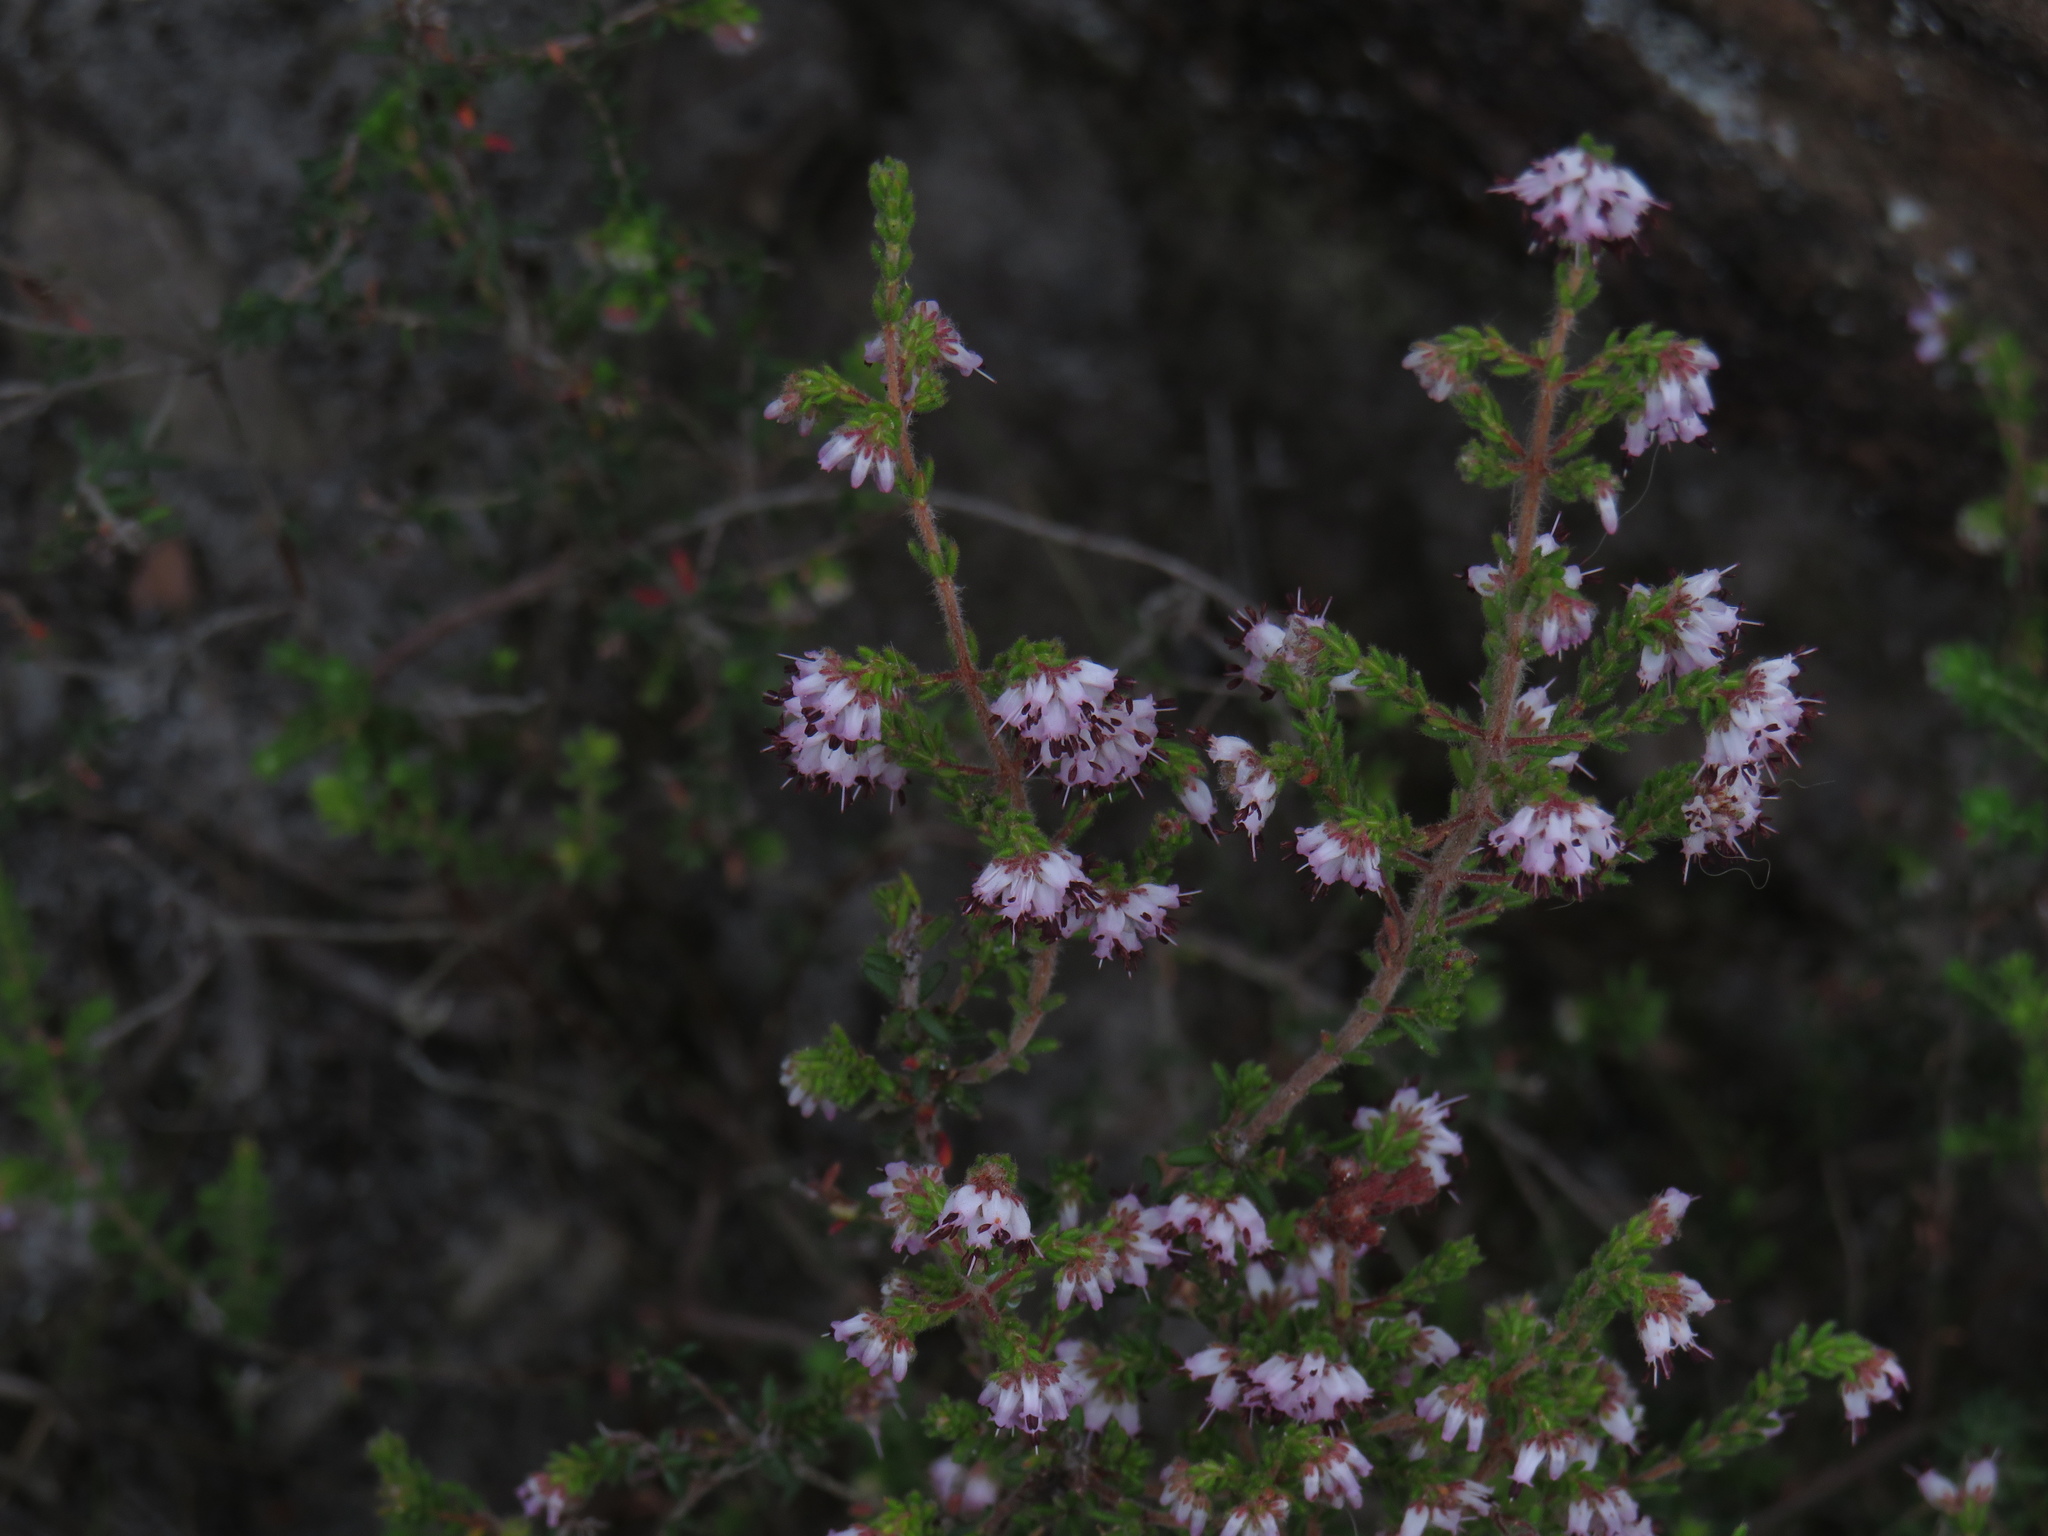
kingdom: Plantae
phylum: Tracheophyta
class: Magnoliopsida
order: Ericales
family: Ericaceae
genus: Erica
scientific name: Erica ericoides
